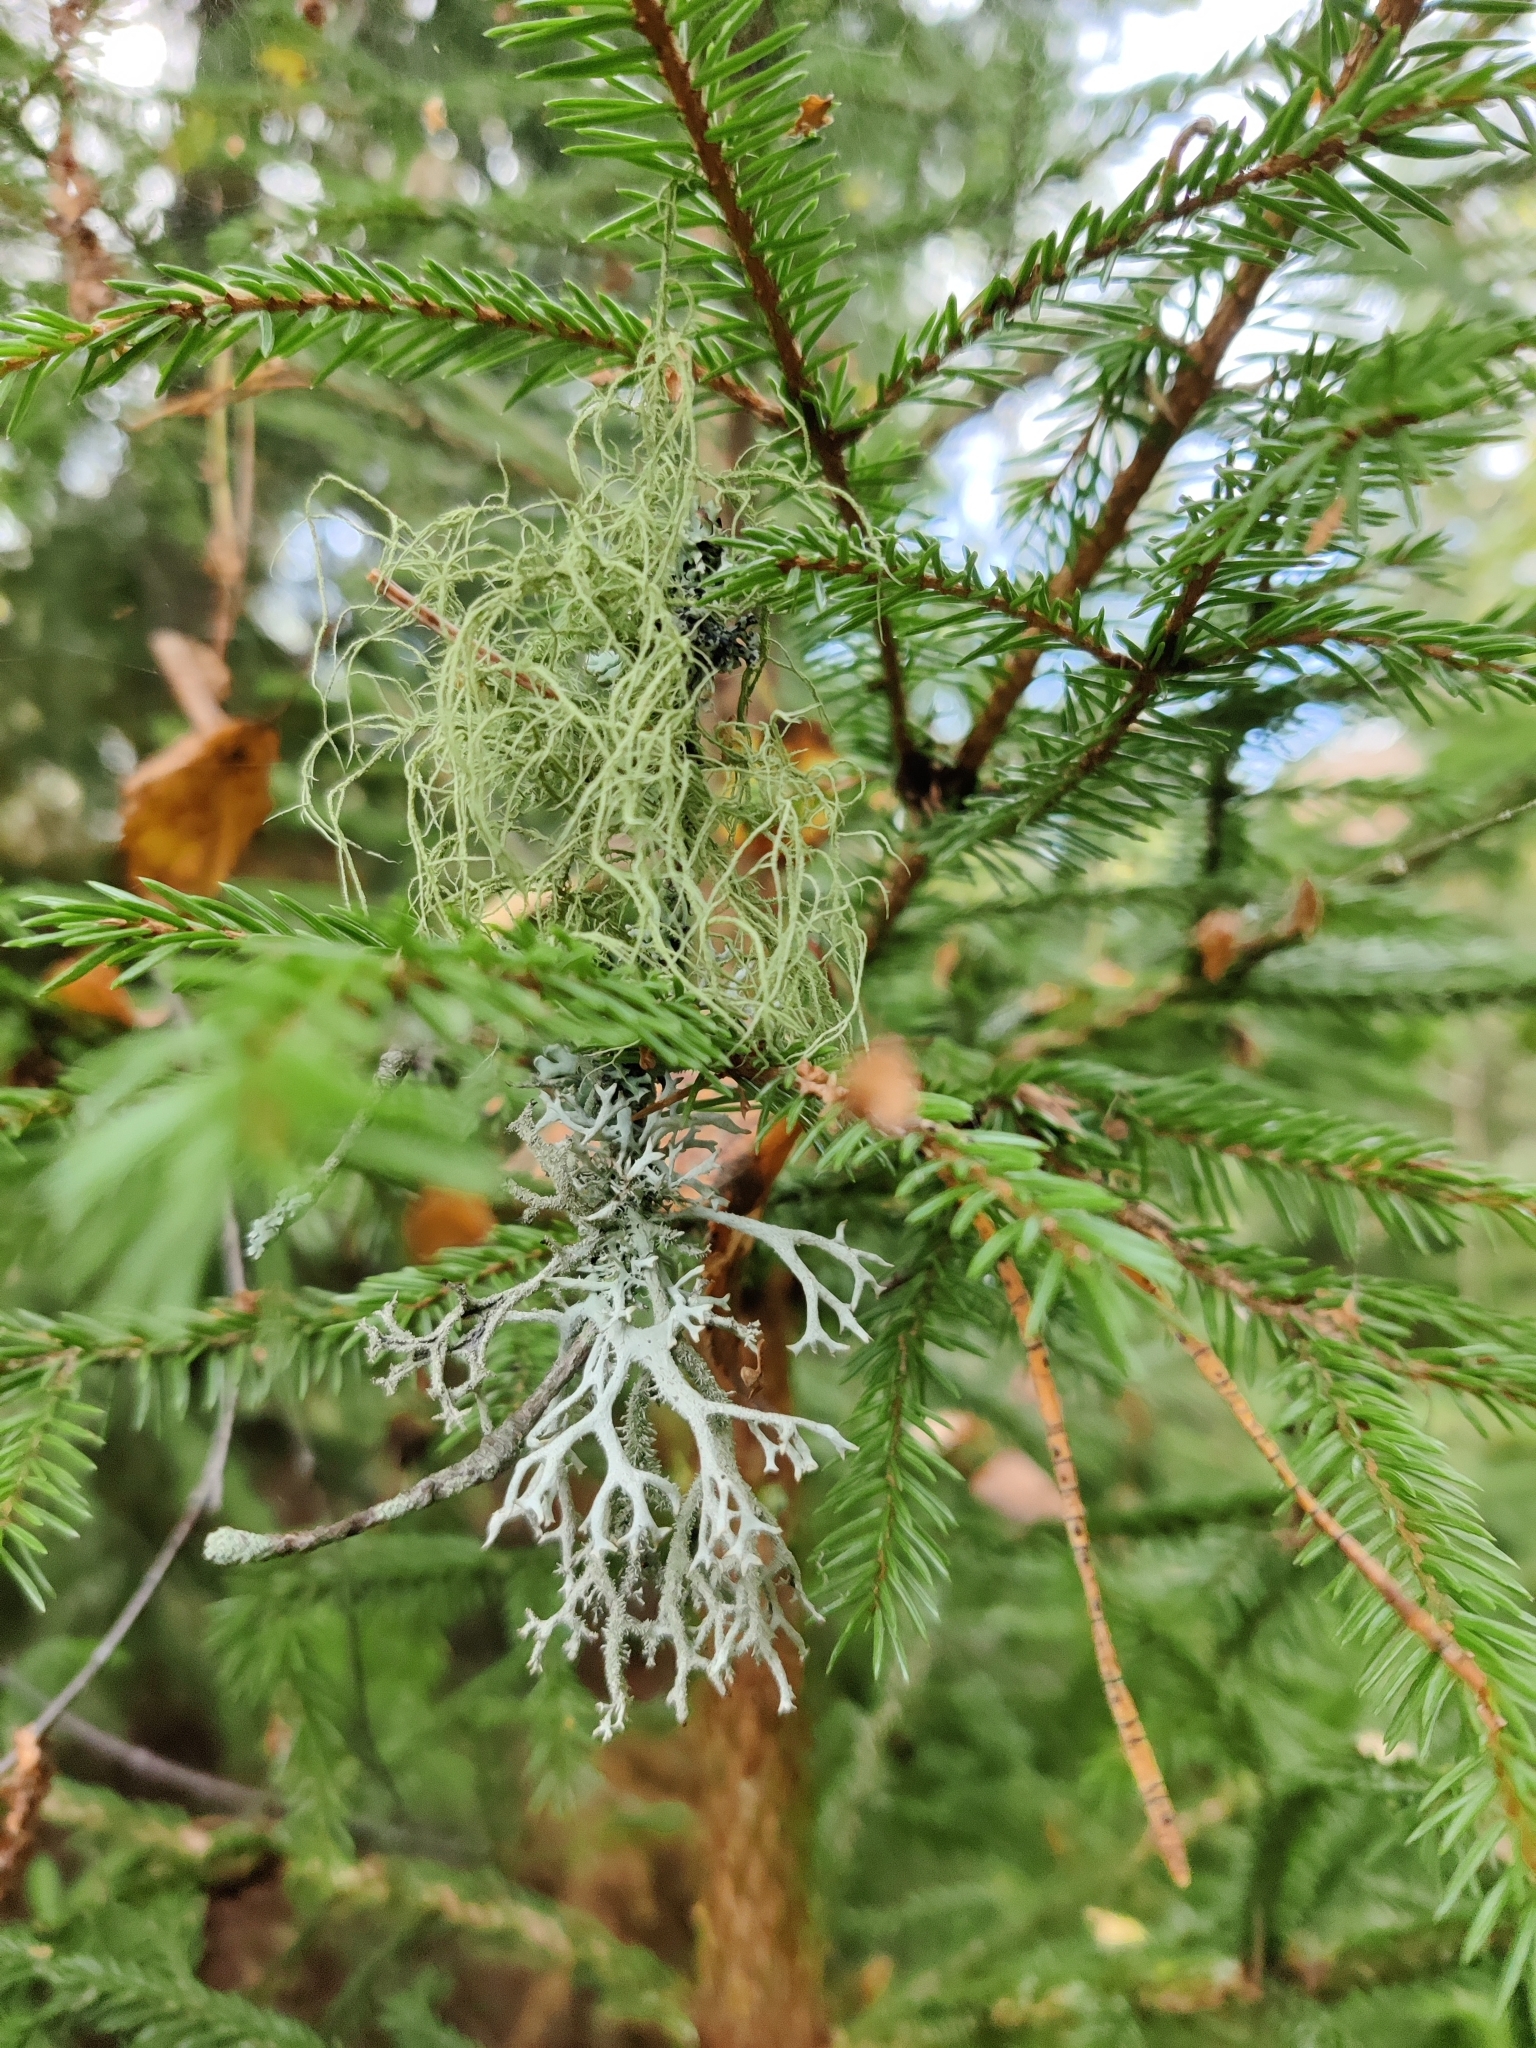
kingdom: Fungi
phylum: Ascomycota
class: Lecanoromycetes
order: Lecanorales
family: Parmeliaceae
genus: Usnea
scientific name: Usnea hirta
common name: Bristly beard lichen
